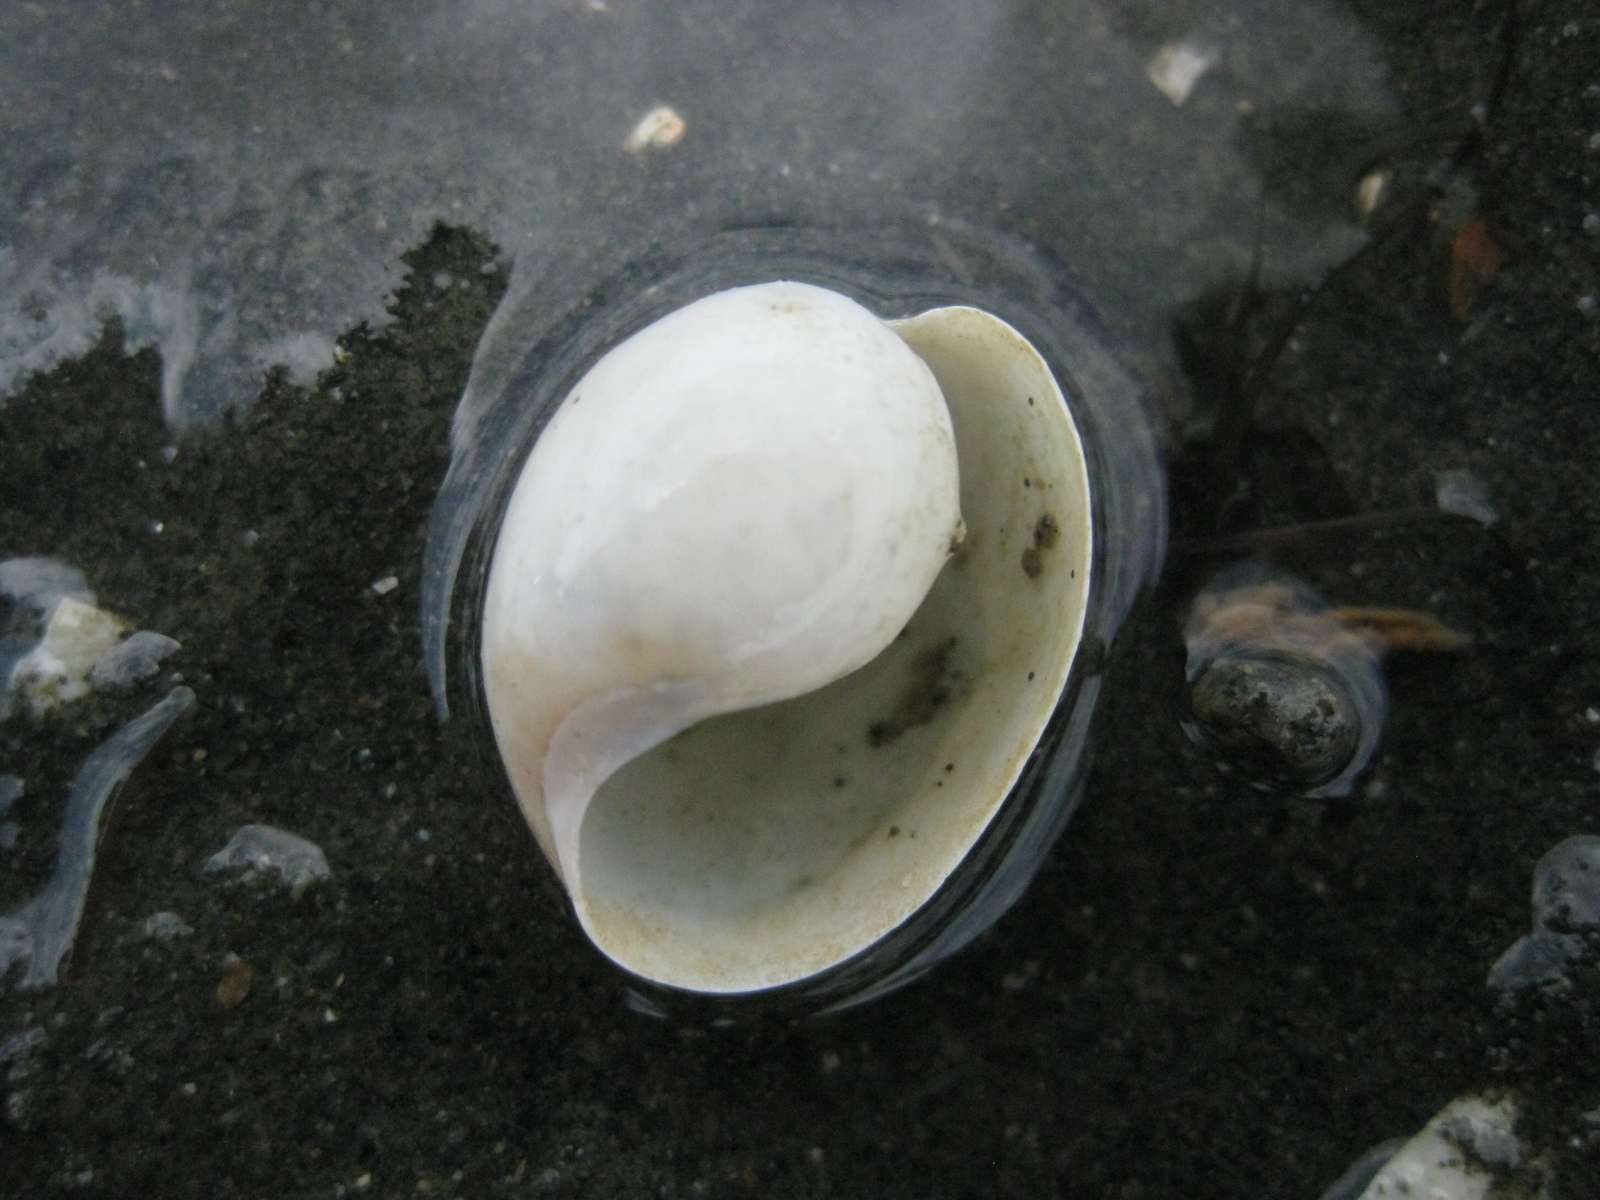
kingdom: Animalia
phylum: Mollusca
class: Gastropoda
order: Cephalaspidea
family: Haminoeidae
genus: Papawera
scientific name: Papawera zelandiae
